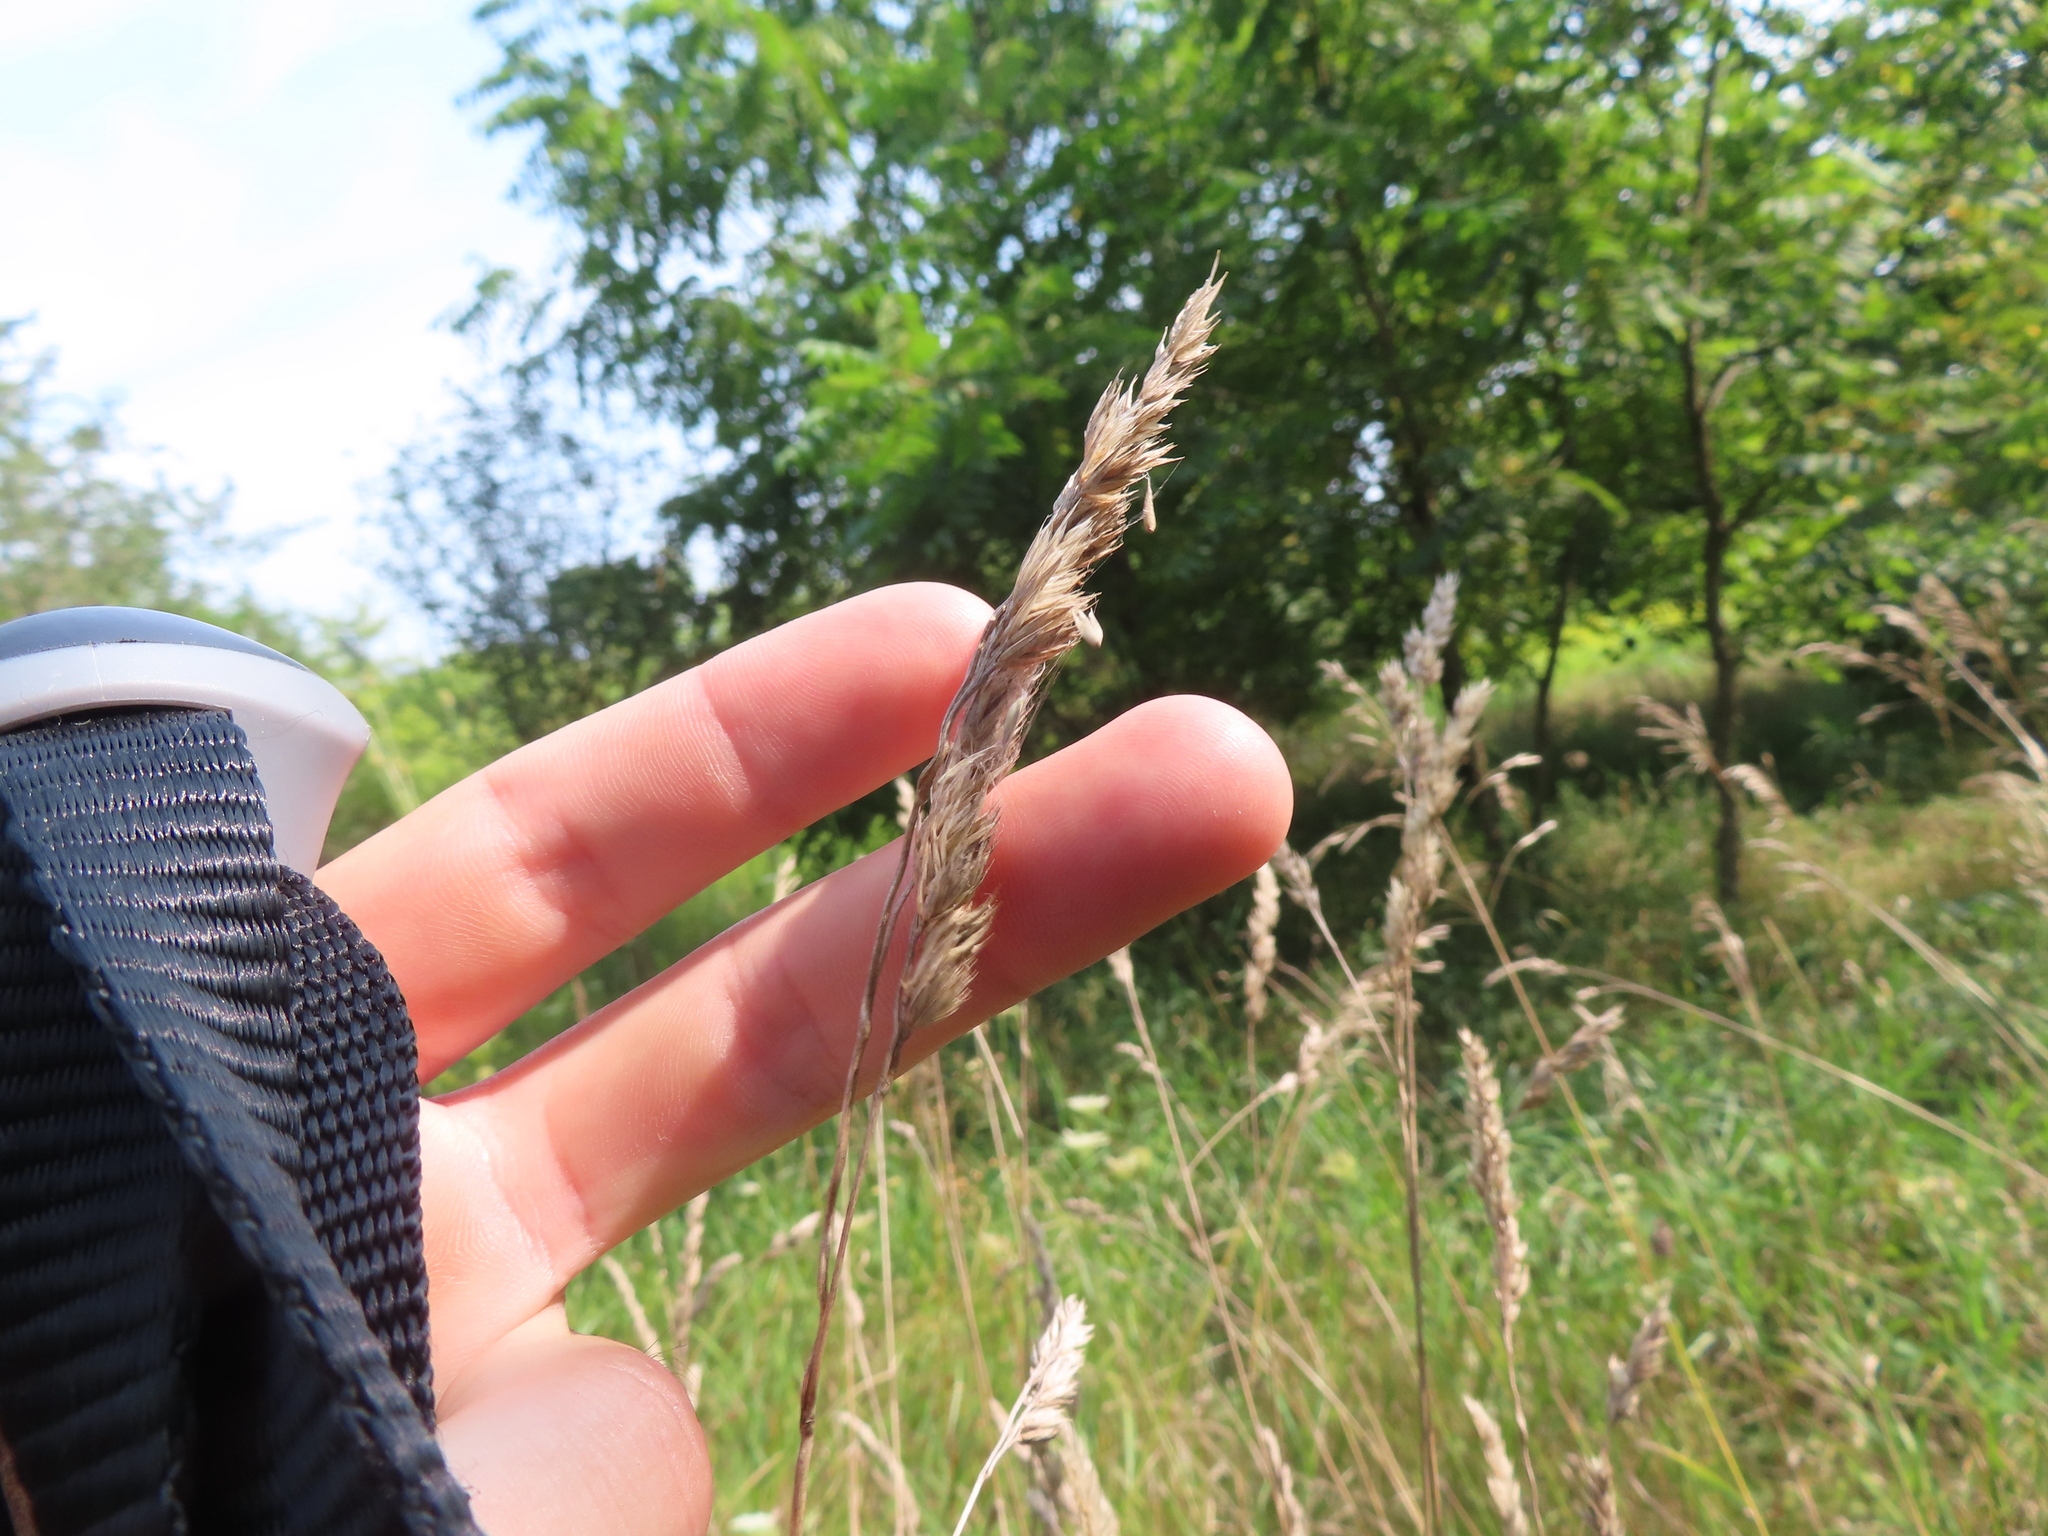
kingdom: Plantae
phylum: Tracheophyta
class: Liliopsida
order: Poales
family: Poaceae
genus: Dactylis
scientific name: Dactylis glomerata
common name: Orchardgrass
